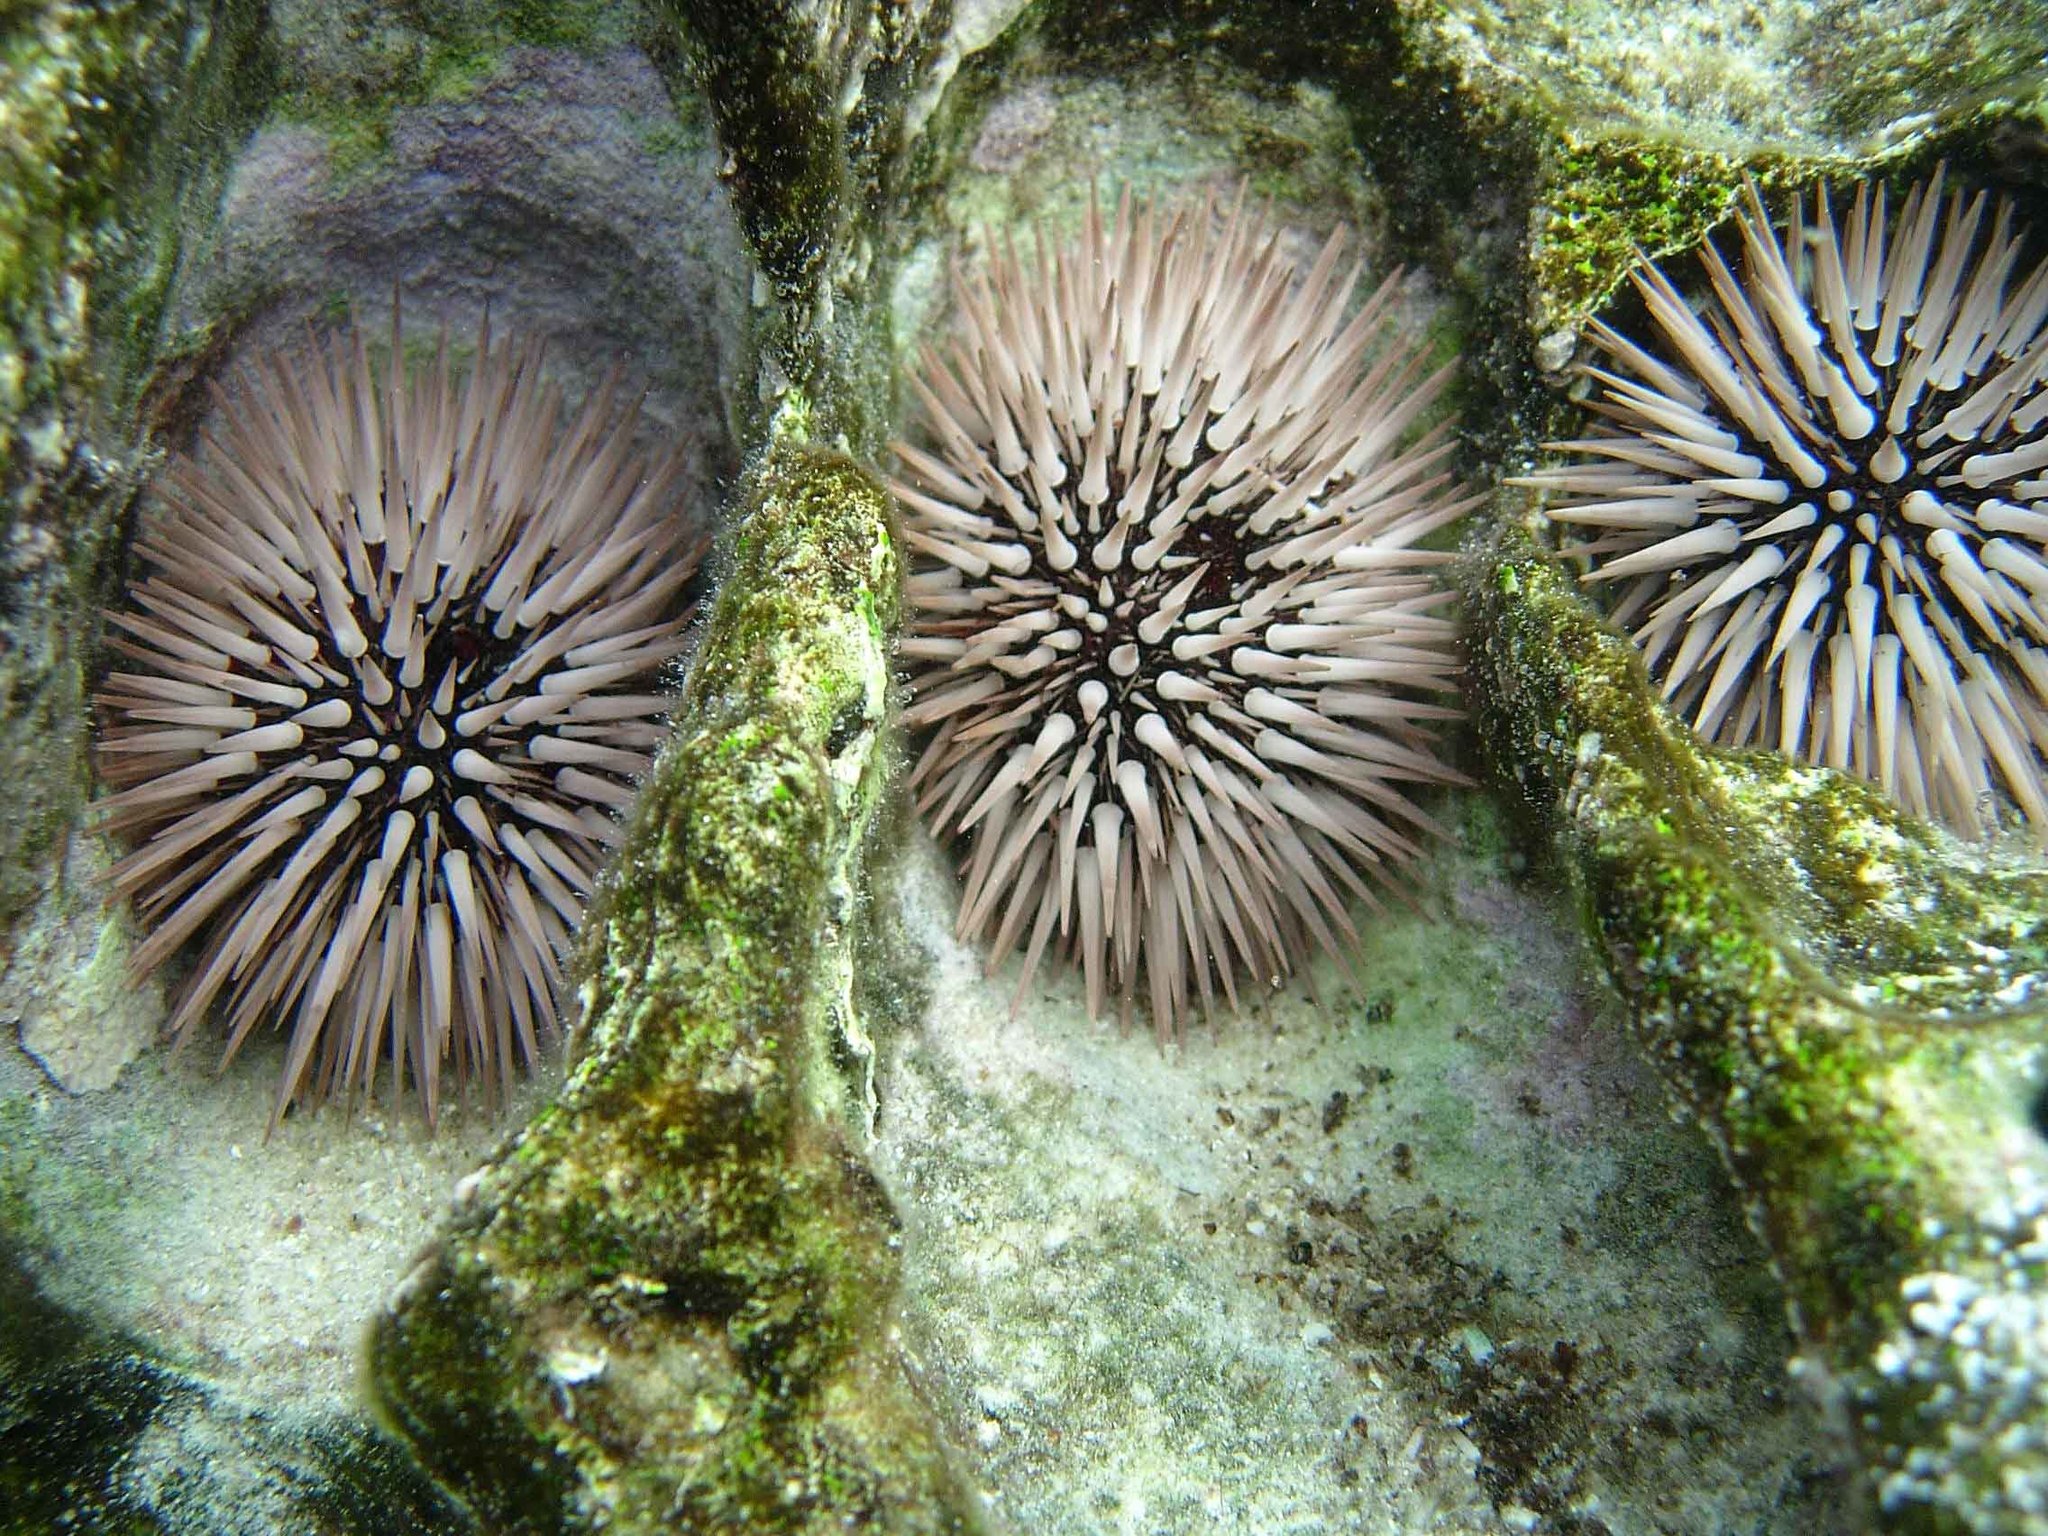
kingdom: Animalia
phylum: Echinodermata
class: Echinoidea
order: Camarodonta
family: Echinometridae
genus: Echinometra
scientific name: Echinometra mathaei
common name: Rock-boring urchin
